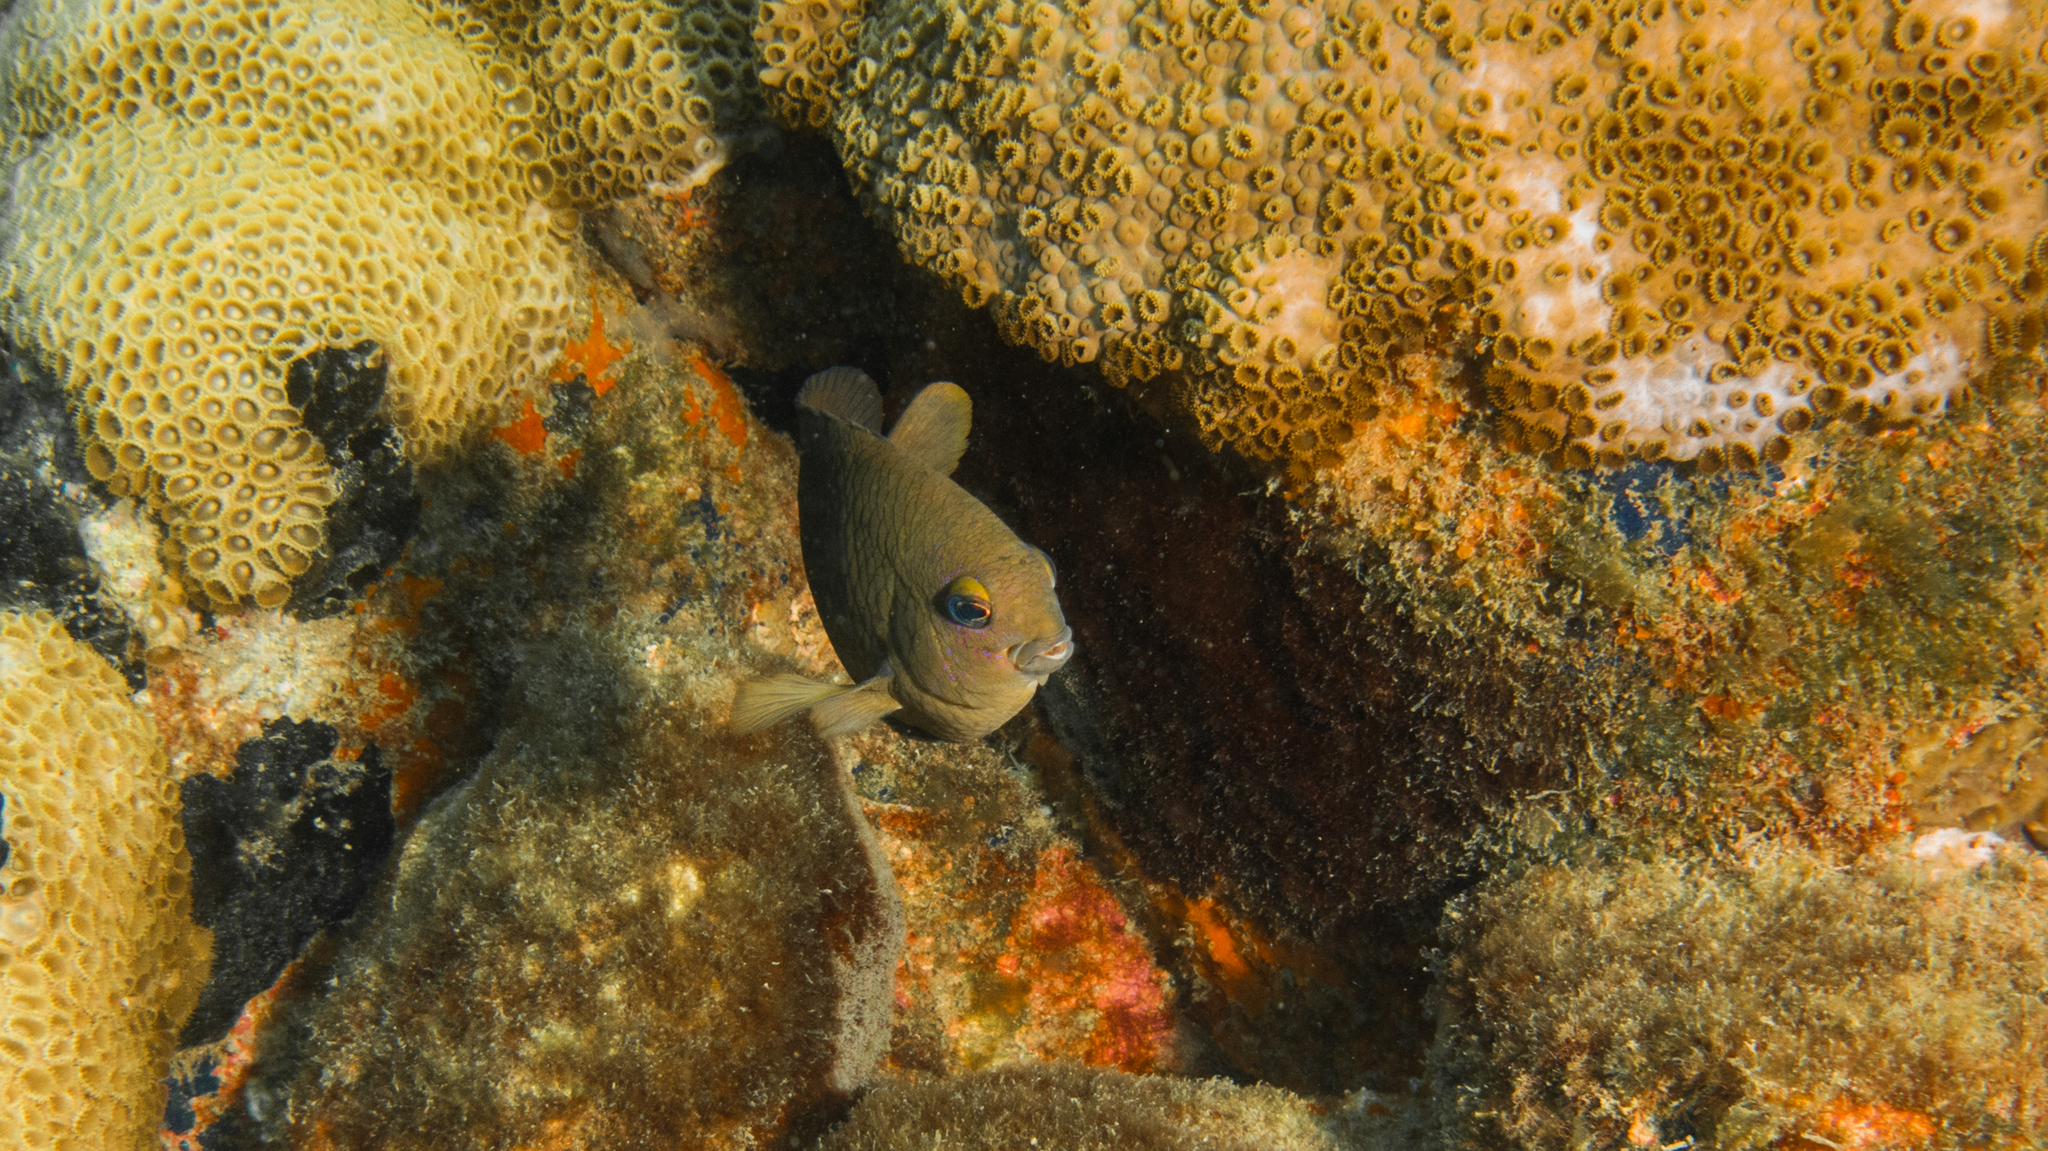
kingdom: Animalia
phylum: Chordata
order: Perciformes
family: Pomacentridae
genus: Stegastes
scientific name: Stegastes fuscus
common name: Brazilian damsel
